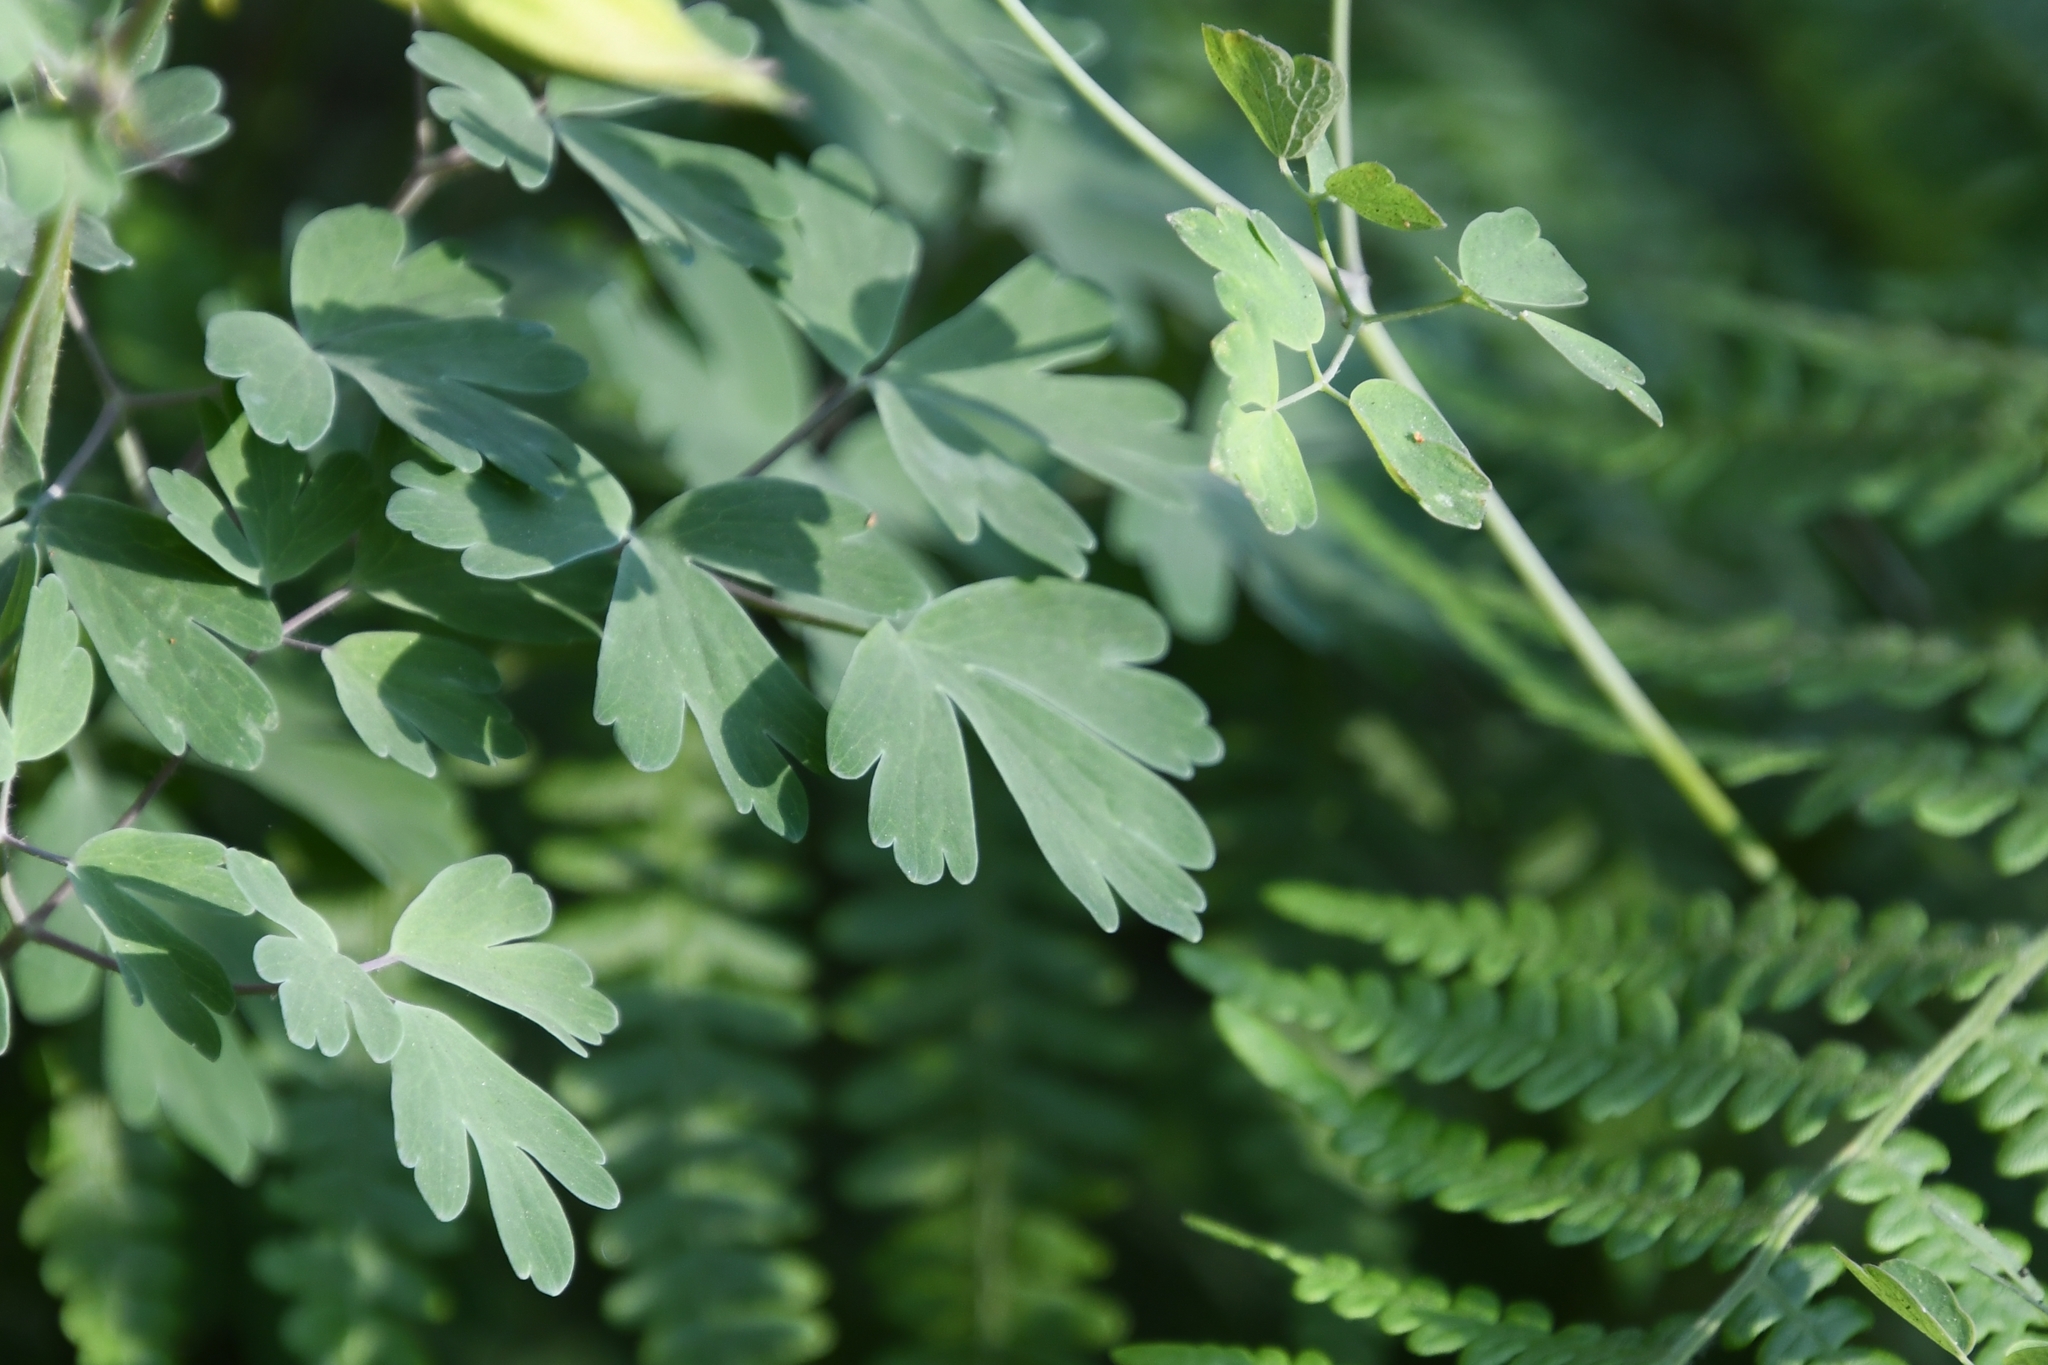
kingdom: Plantae
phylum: Tracheophyta
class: Magnoliopsida
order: Ranunculales
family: Ranunculaceae
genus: Aquilegia
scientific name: Aquilegia chrysantha
